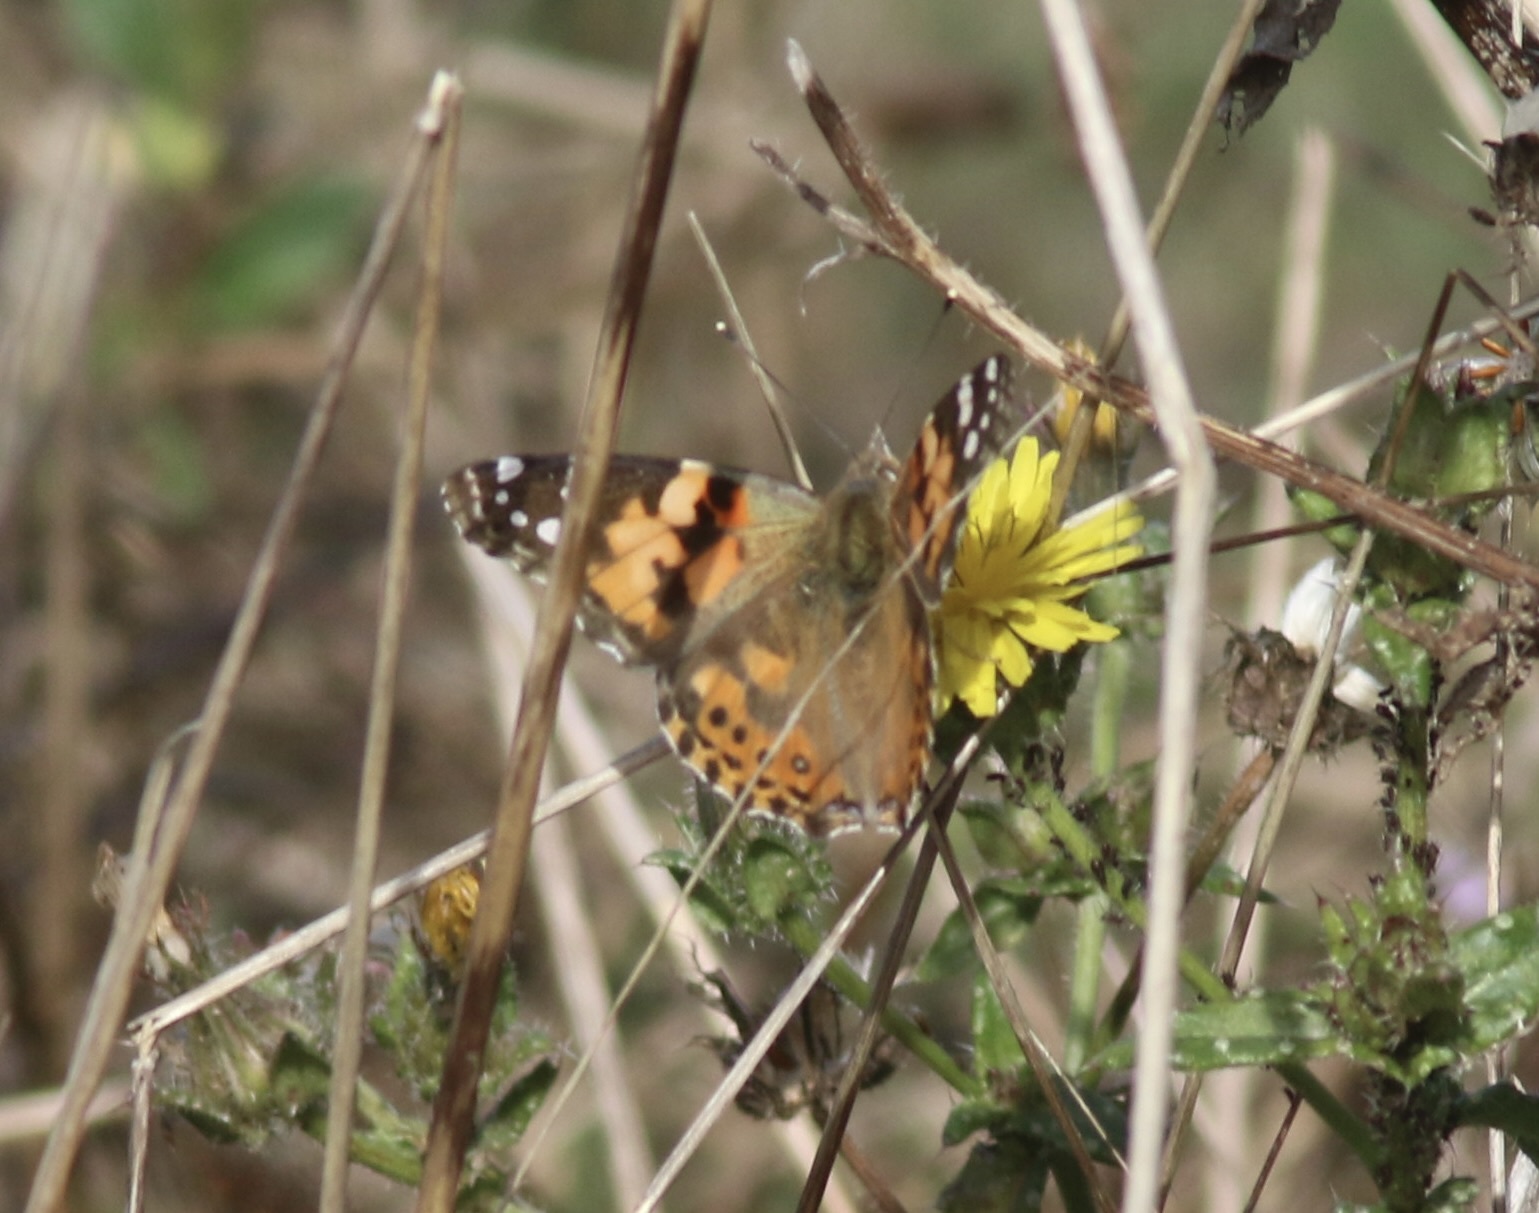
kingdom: Animalia
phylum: Arthropoda
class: Insecta
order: Lepidoptera
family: Nymphalidae
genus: Vanessa
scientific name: Vanessa cardui
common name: Painted lady
